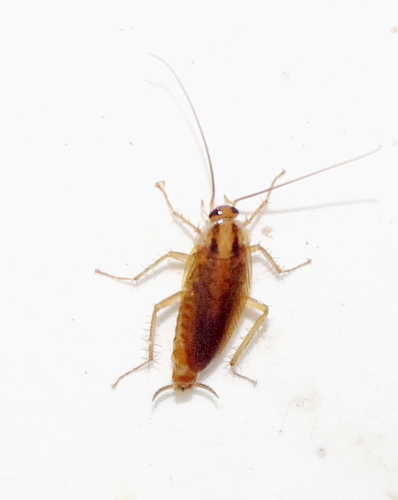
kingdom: Animalia
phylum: Arthropoda
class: Insecta
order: Blattodea
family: Ectobiidae
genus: Blattella
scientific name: Blattella germanica
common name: German cockroach
